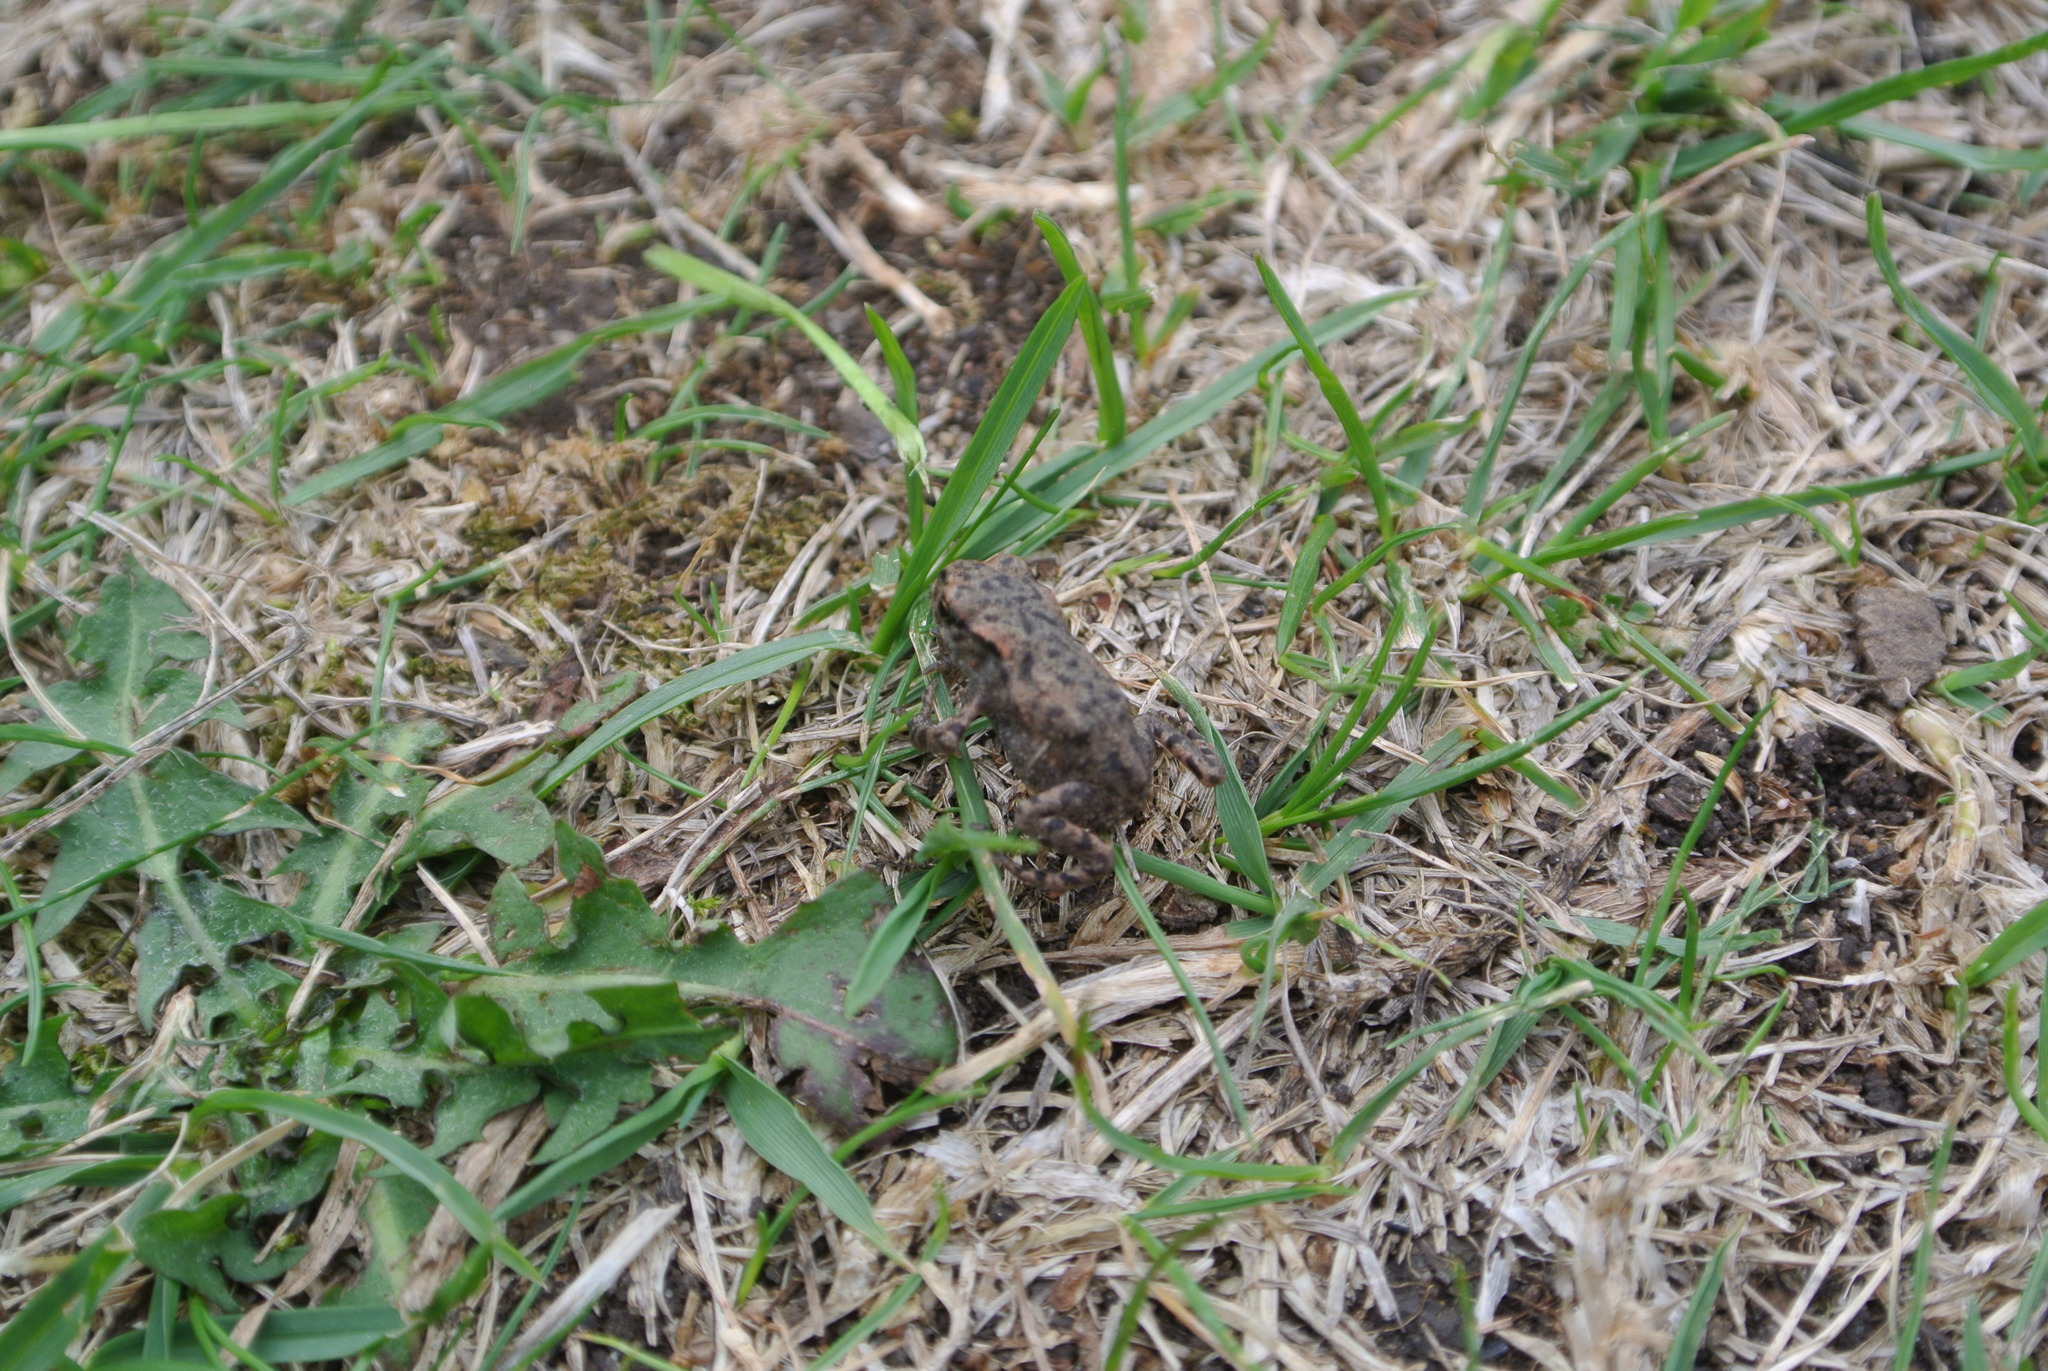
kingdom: Animalia
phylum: Chordata
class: Amphibia
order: Anura
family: Bufonidae
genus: Bufo
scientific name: Bufo bufo
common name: Common toad
